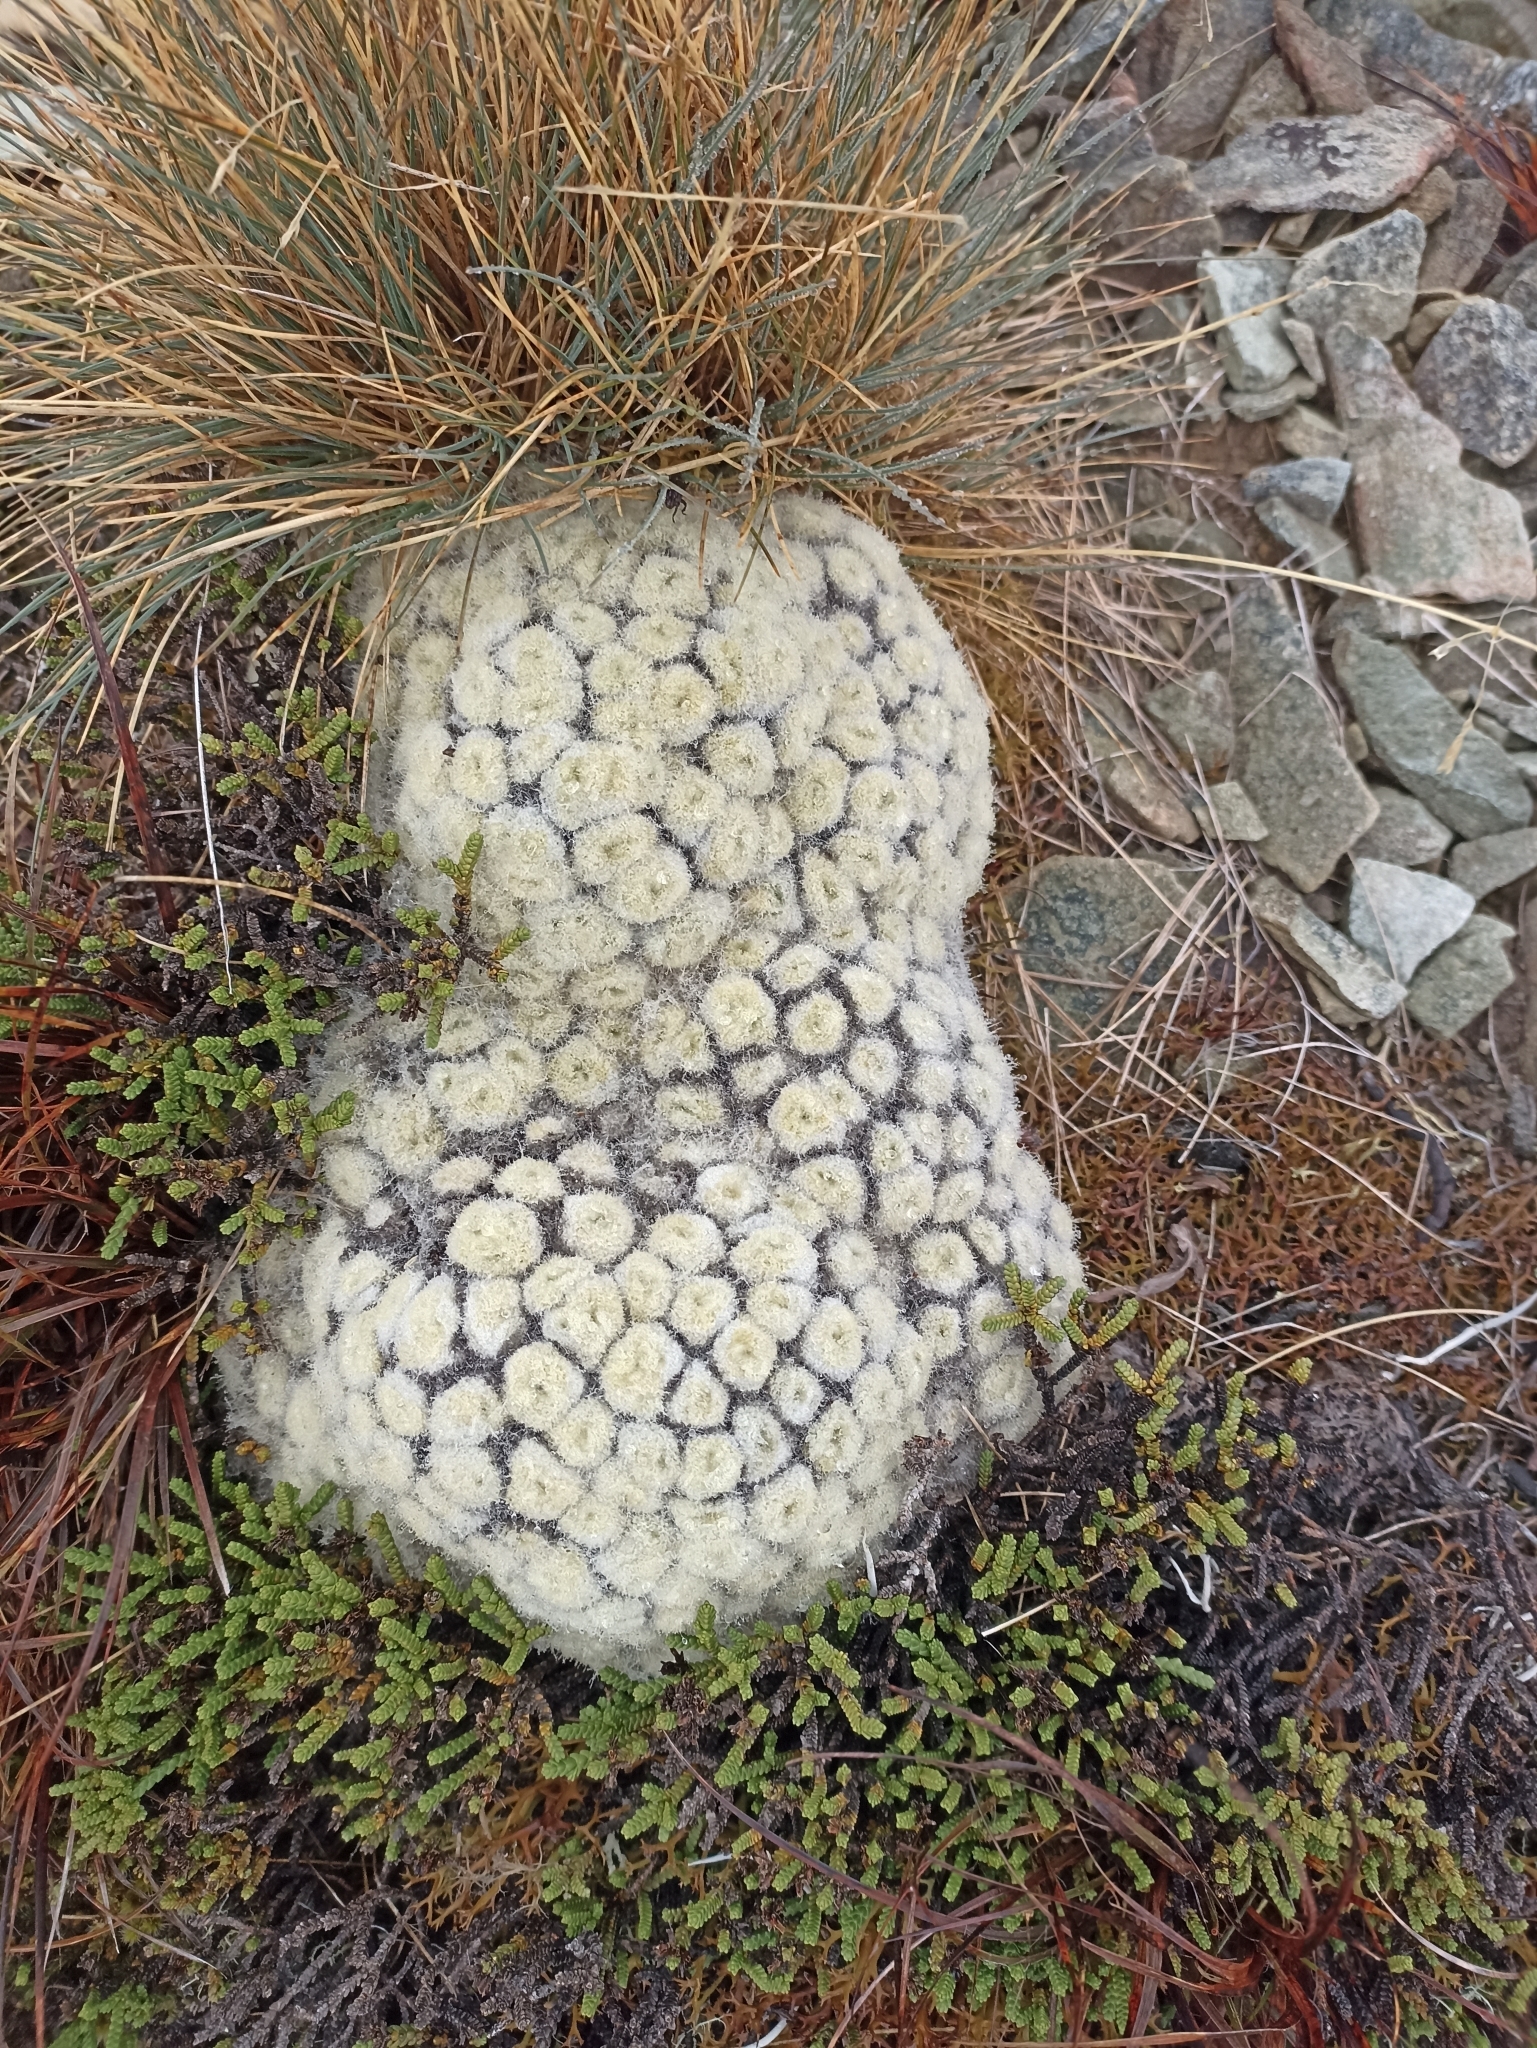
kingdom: Plantae
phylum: Tracheophyta
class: Magnoliopsida
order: Asterales
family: Asteraceae
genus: Haastia
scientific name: Haastia pulvinaris
